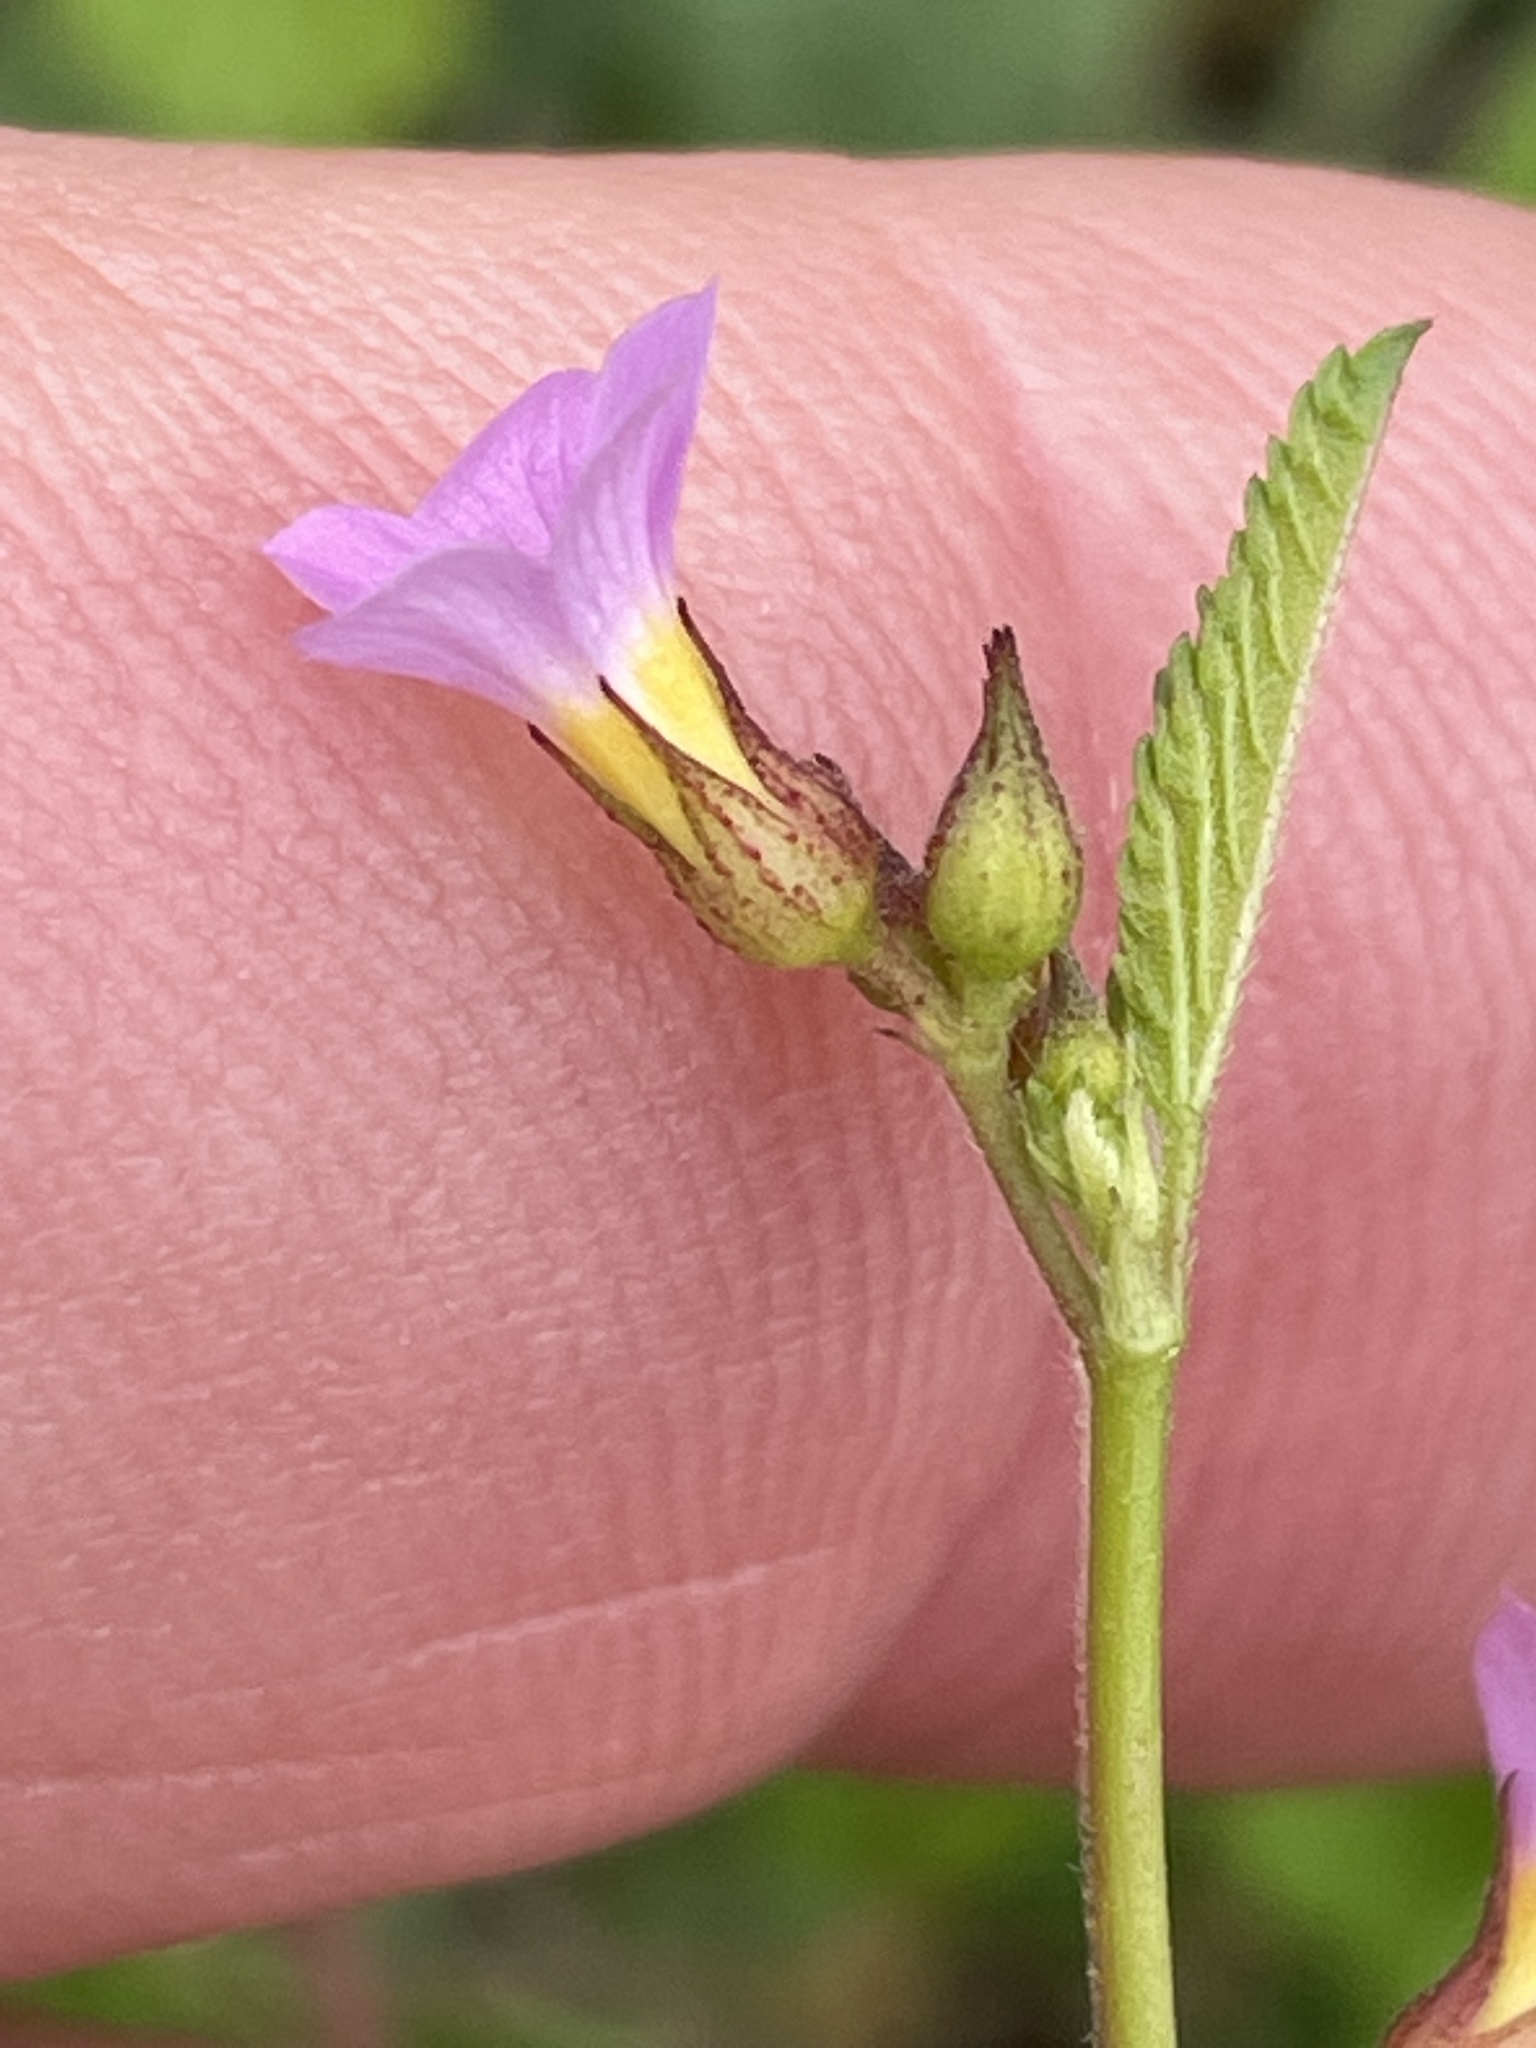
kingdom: Plantae
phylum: Tracheophyta
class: Magnoliopsida
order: Malvales
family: Malvaceae
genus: Melochia
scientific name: Melochia pyramidata
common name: Pyramidflower
